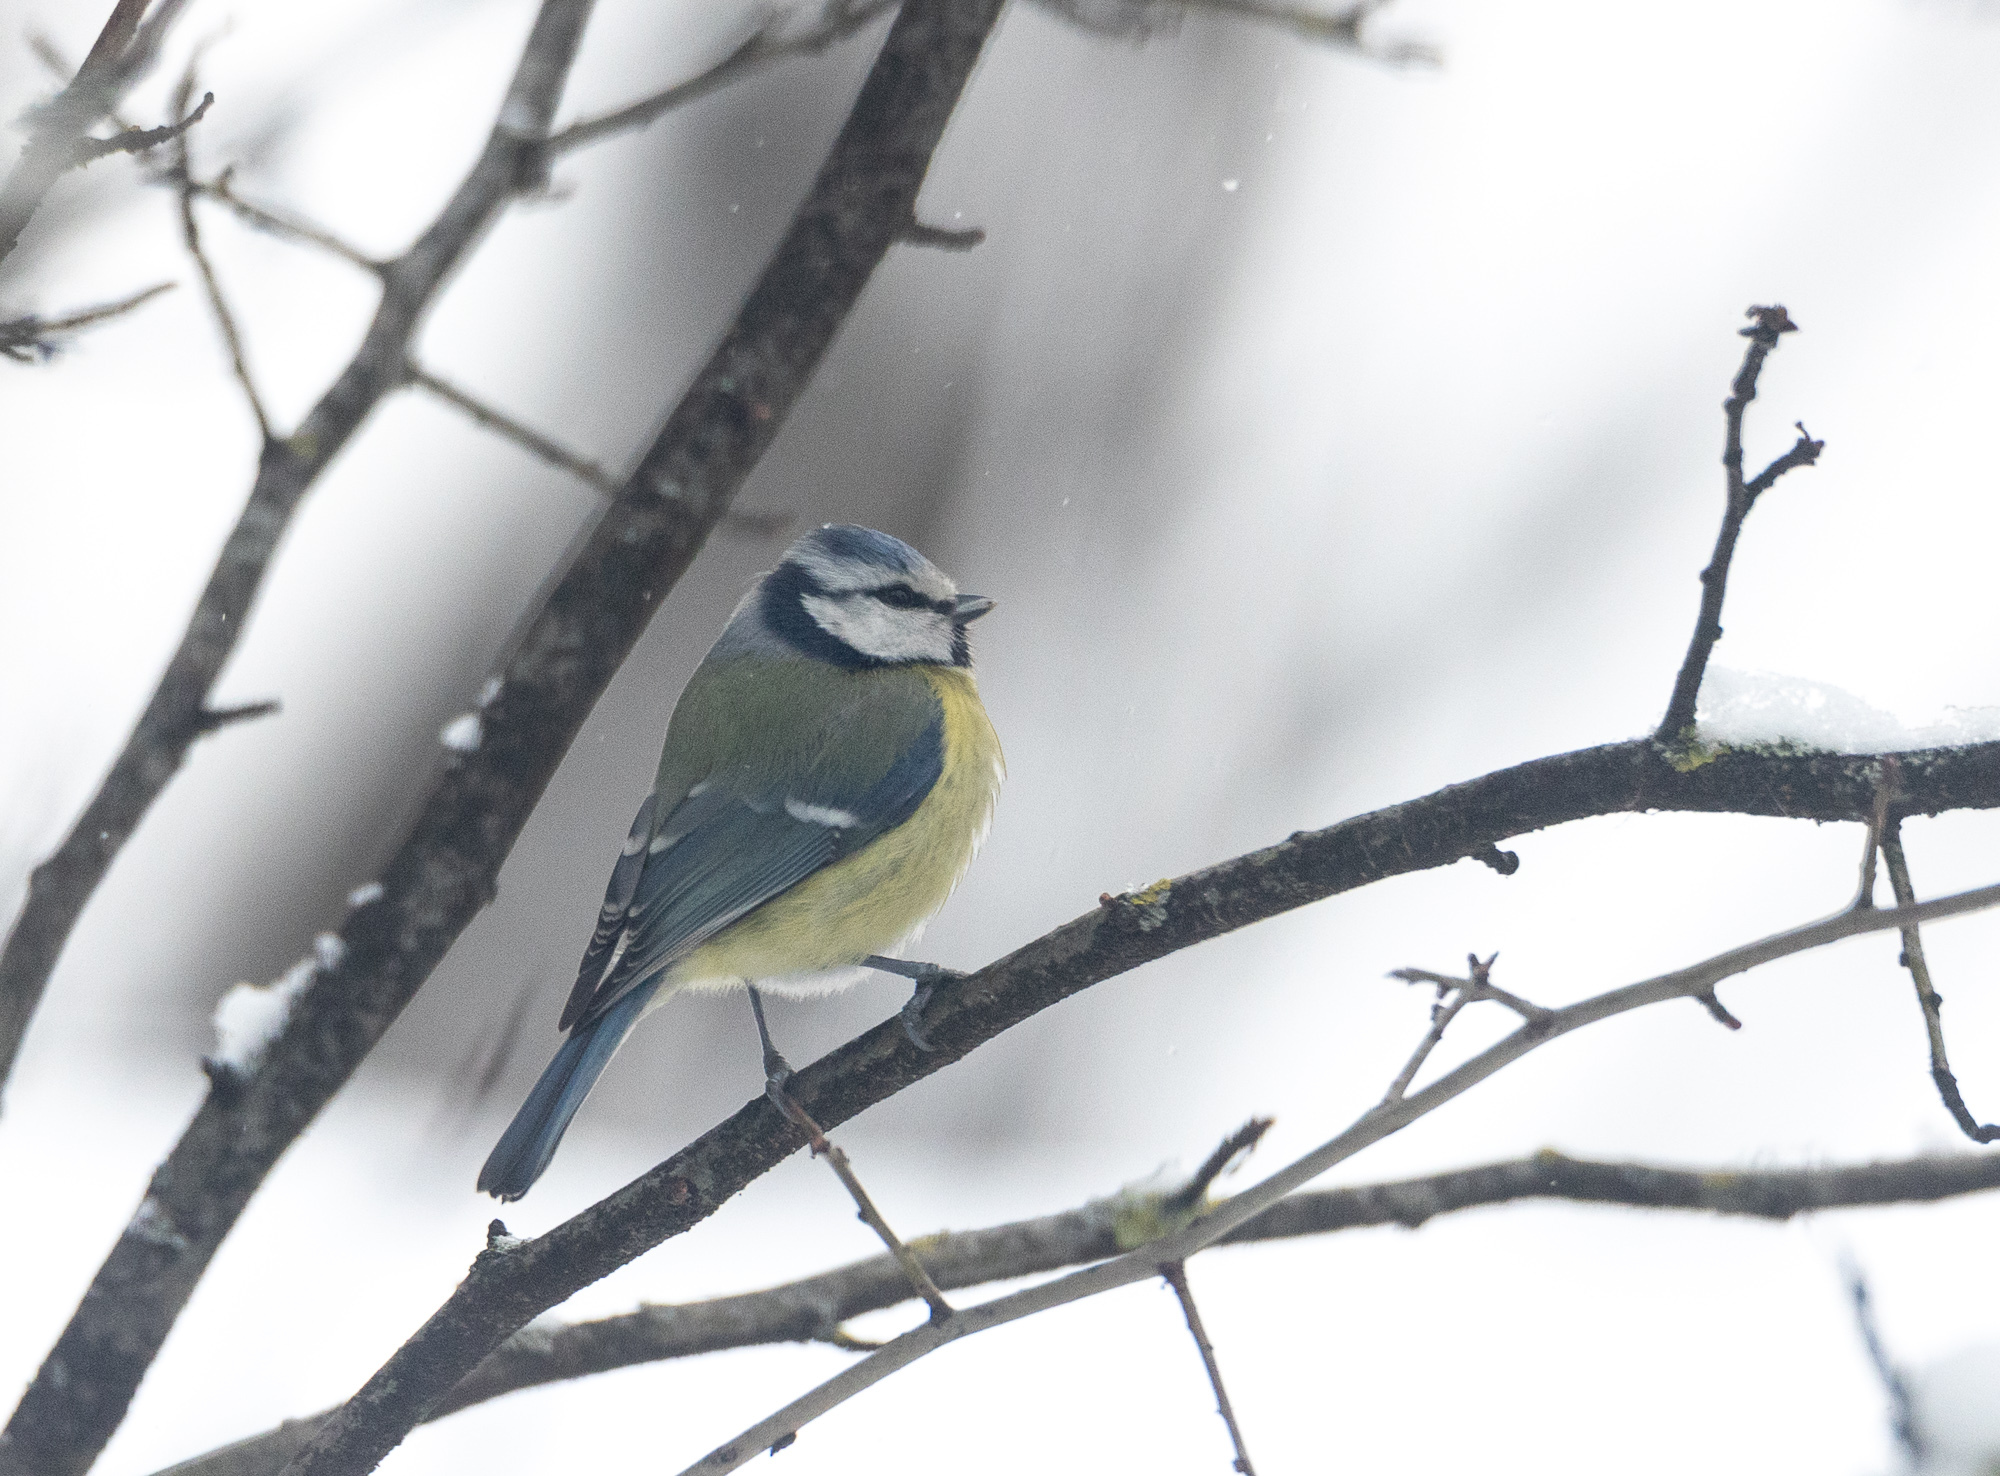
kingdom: Animalia
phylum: Chordata
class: Aves
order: Passeriformes
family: Paridae
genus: Cyanistes
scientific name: Cyanistes caeruleus
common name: Eurasian blue tit
